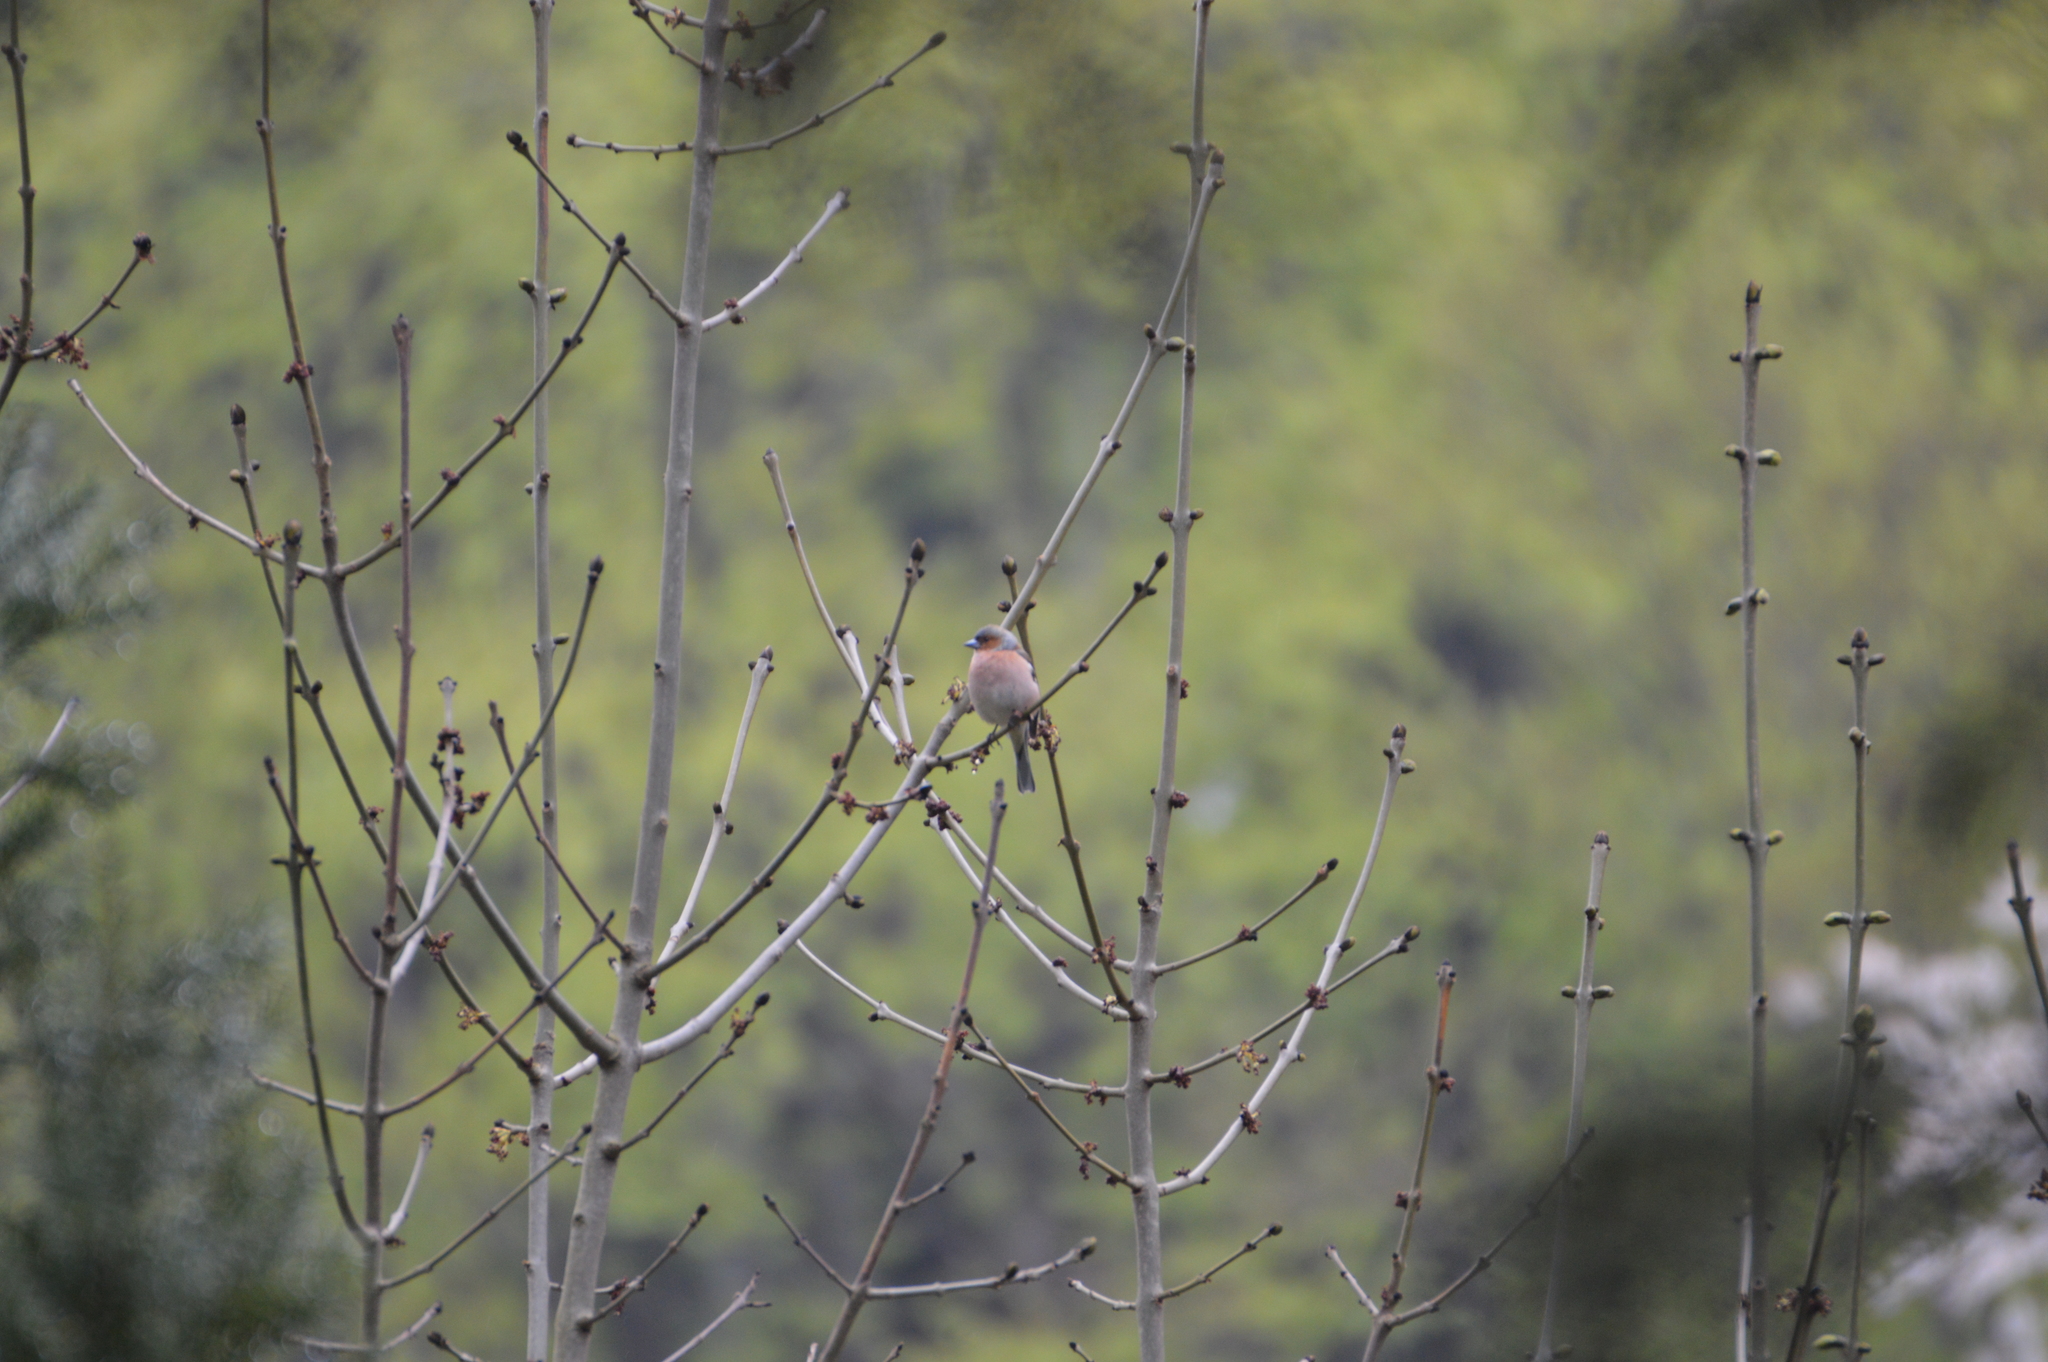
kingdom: Animalia
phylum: Chordata
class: Aves
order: Passeriformes
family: Fringillidae
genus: Fringilla
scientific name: Fringilla coelebs
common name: Common chaffinch
